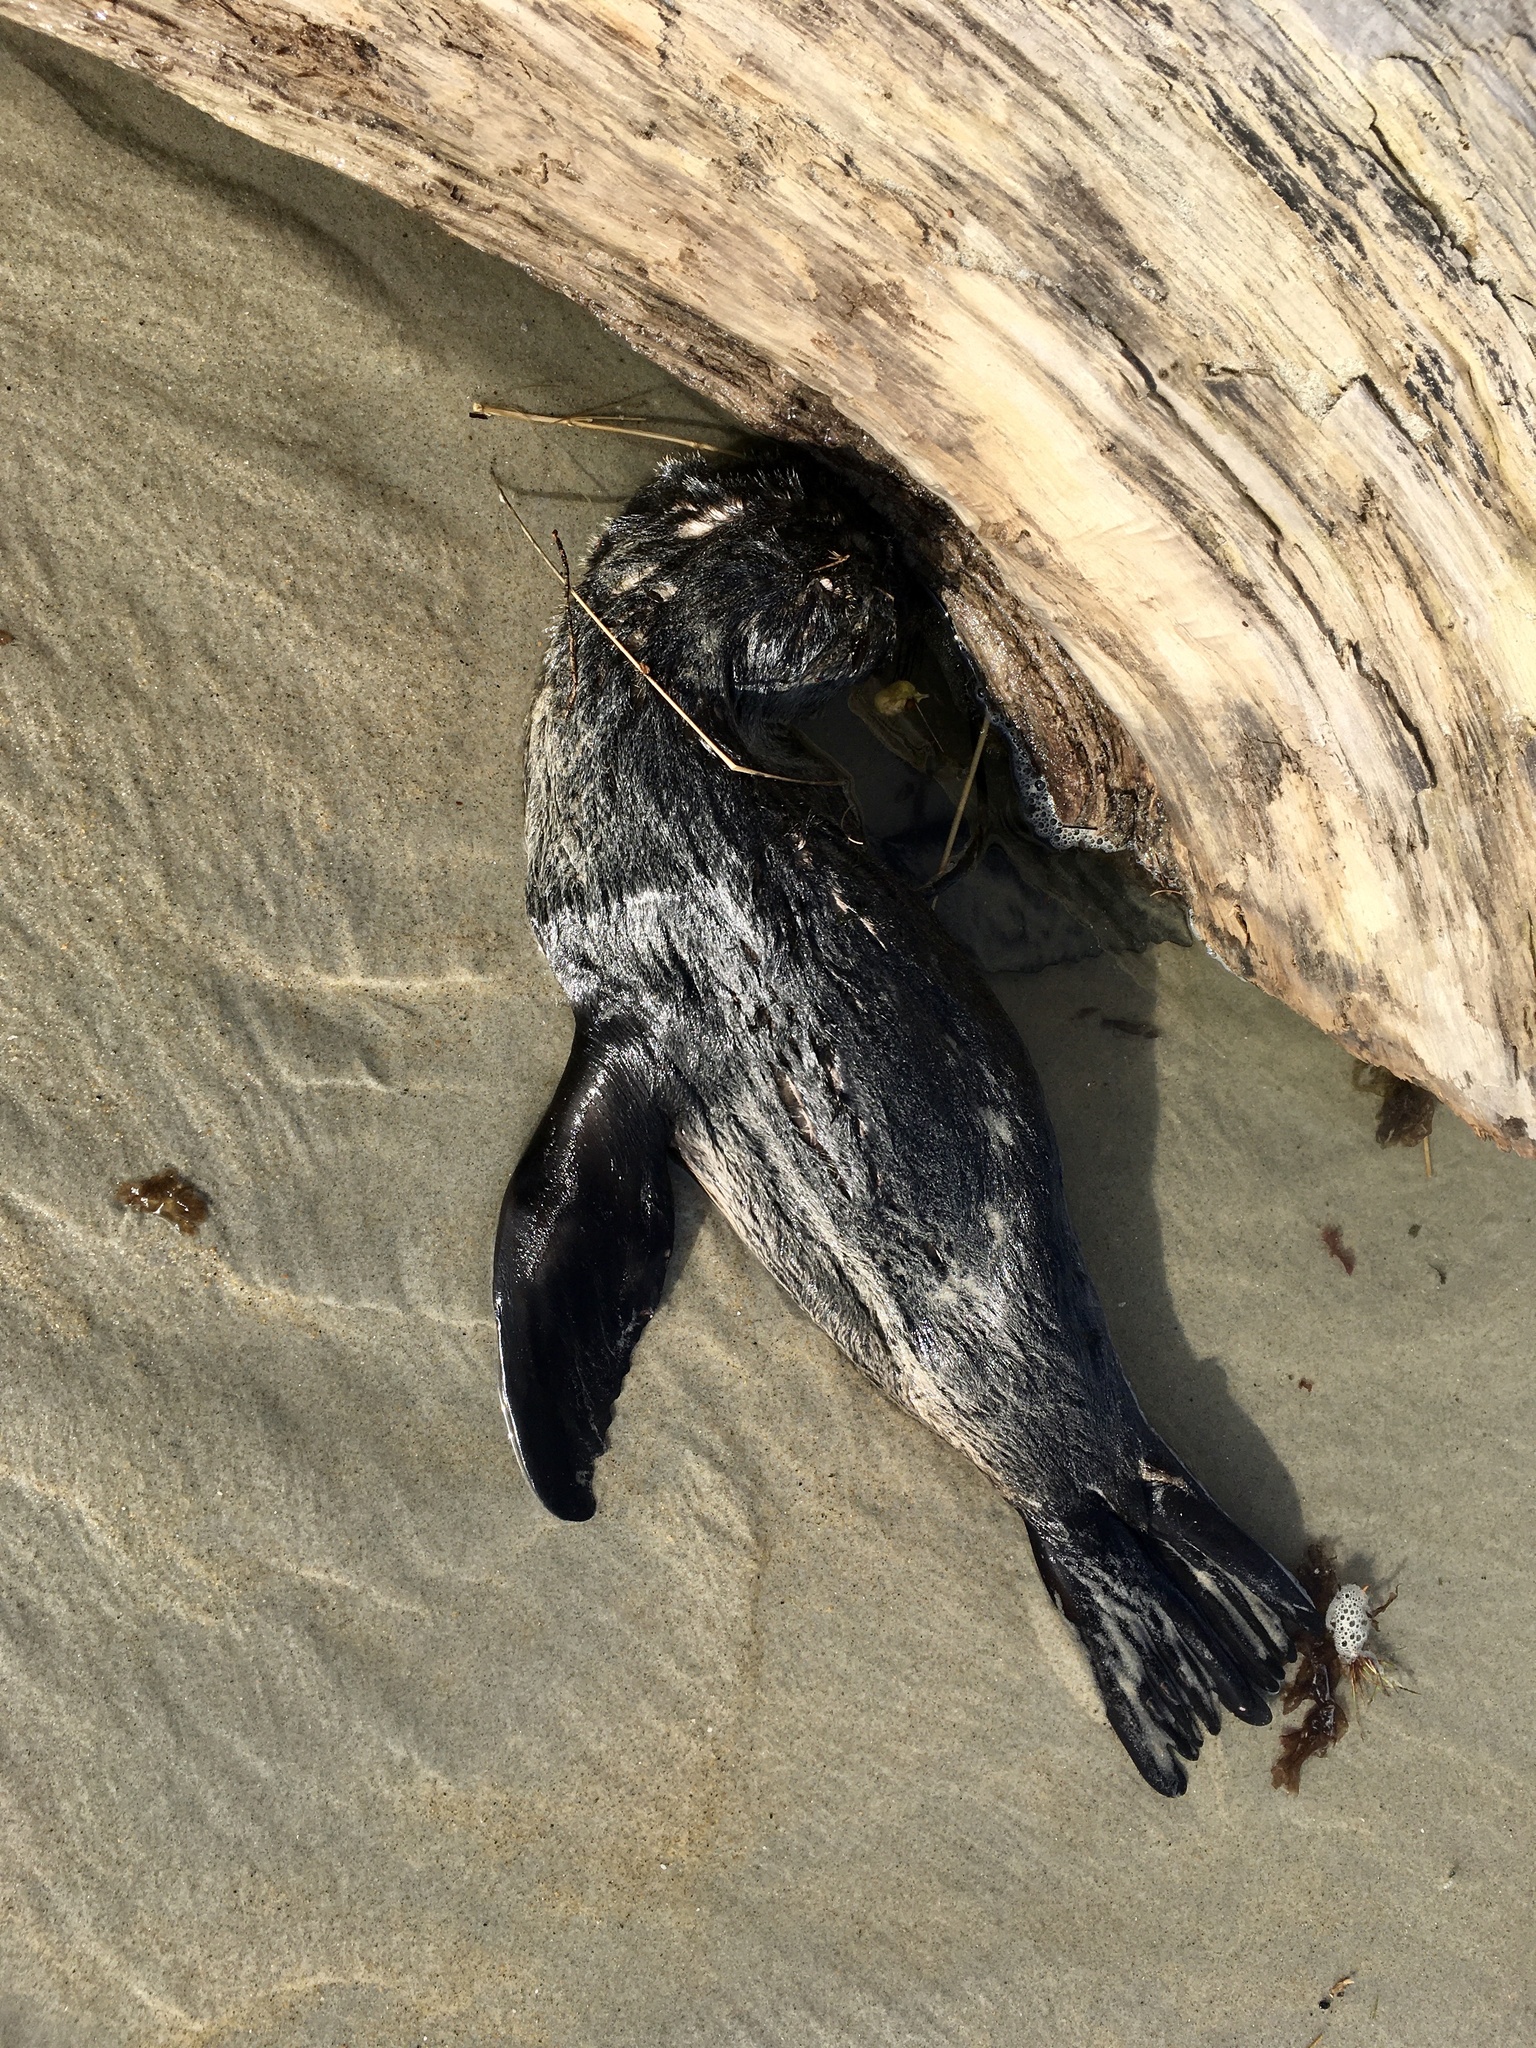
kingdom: Animalia
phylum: Chordata
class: Mammalia
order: Carnivora
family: Otariidae
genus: Arctocephalus
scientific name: Arctocephalus forsteri
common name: New zealand fur seal
